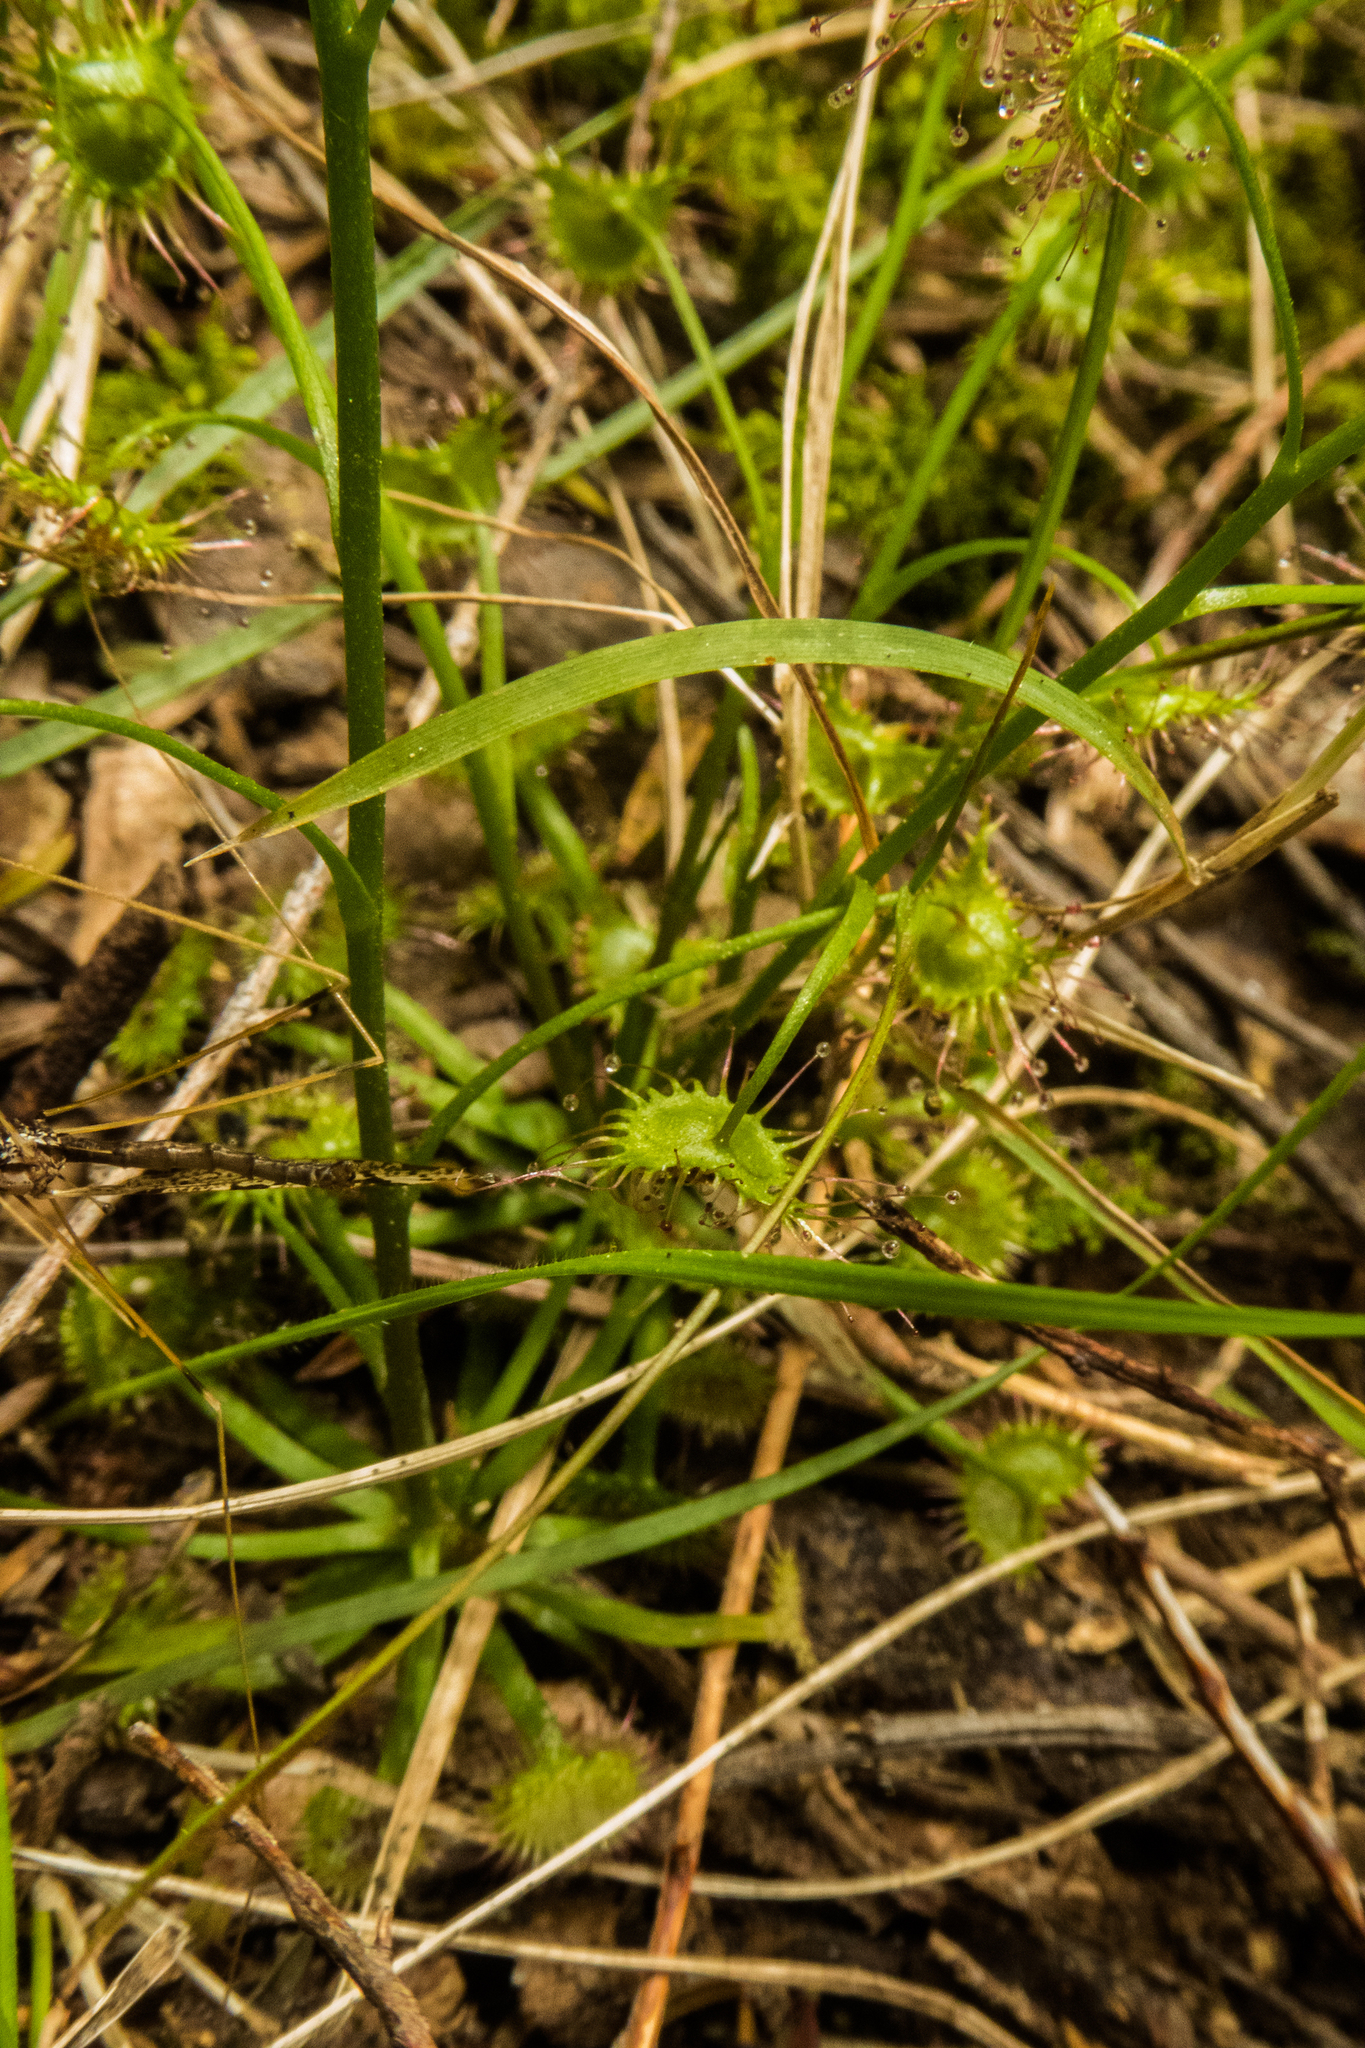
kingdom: Plantae
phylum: Tracheophyta
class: Magnoliopsida
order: Caryophyllales
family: Droseraceae
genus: Drosera
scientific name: Drosera peltata
